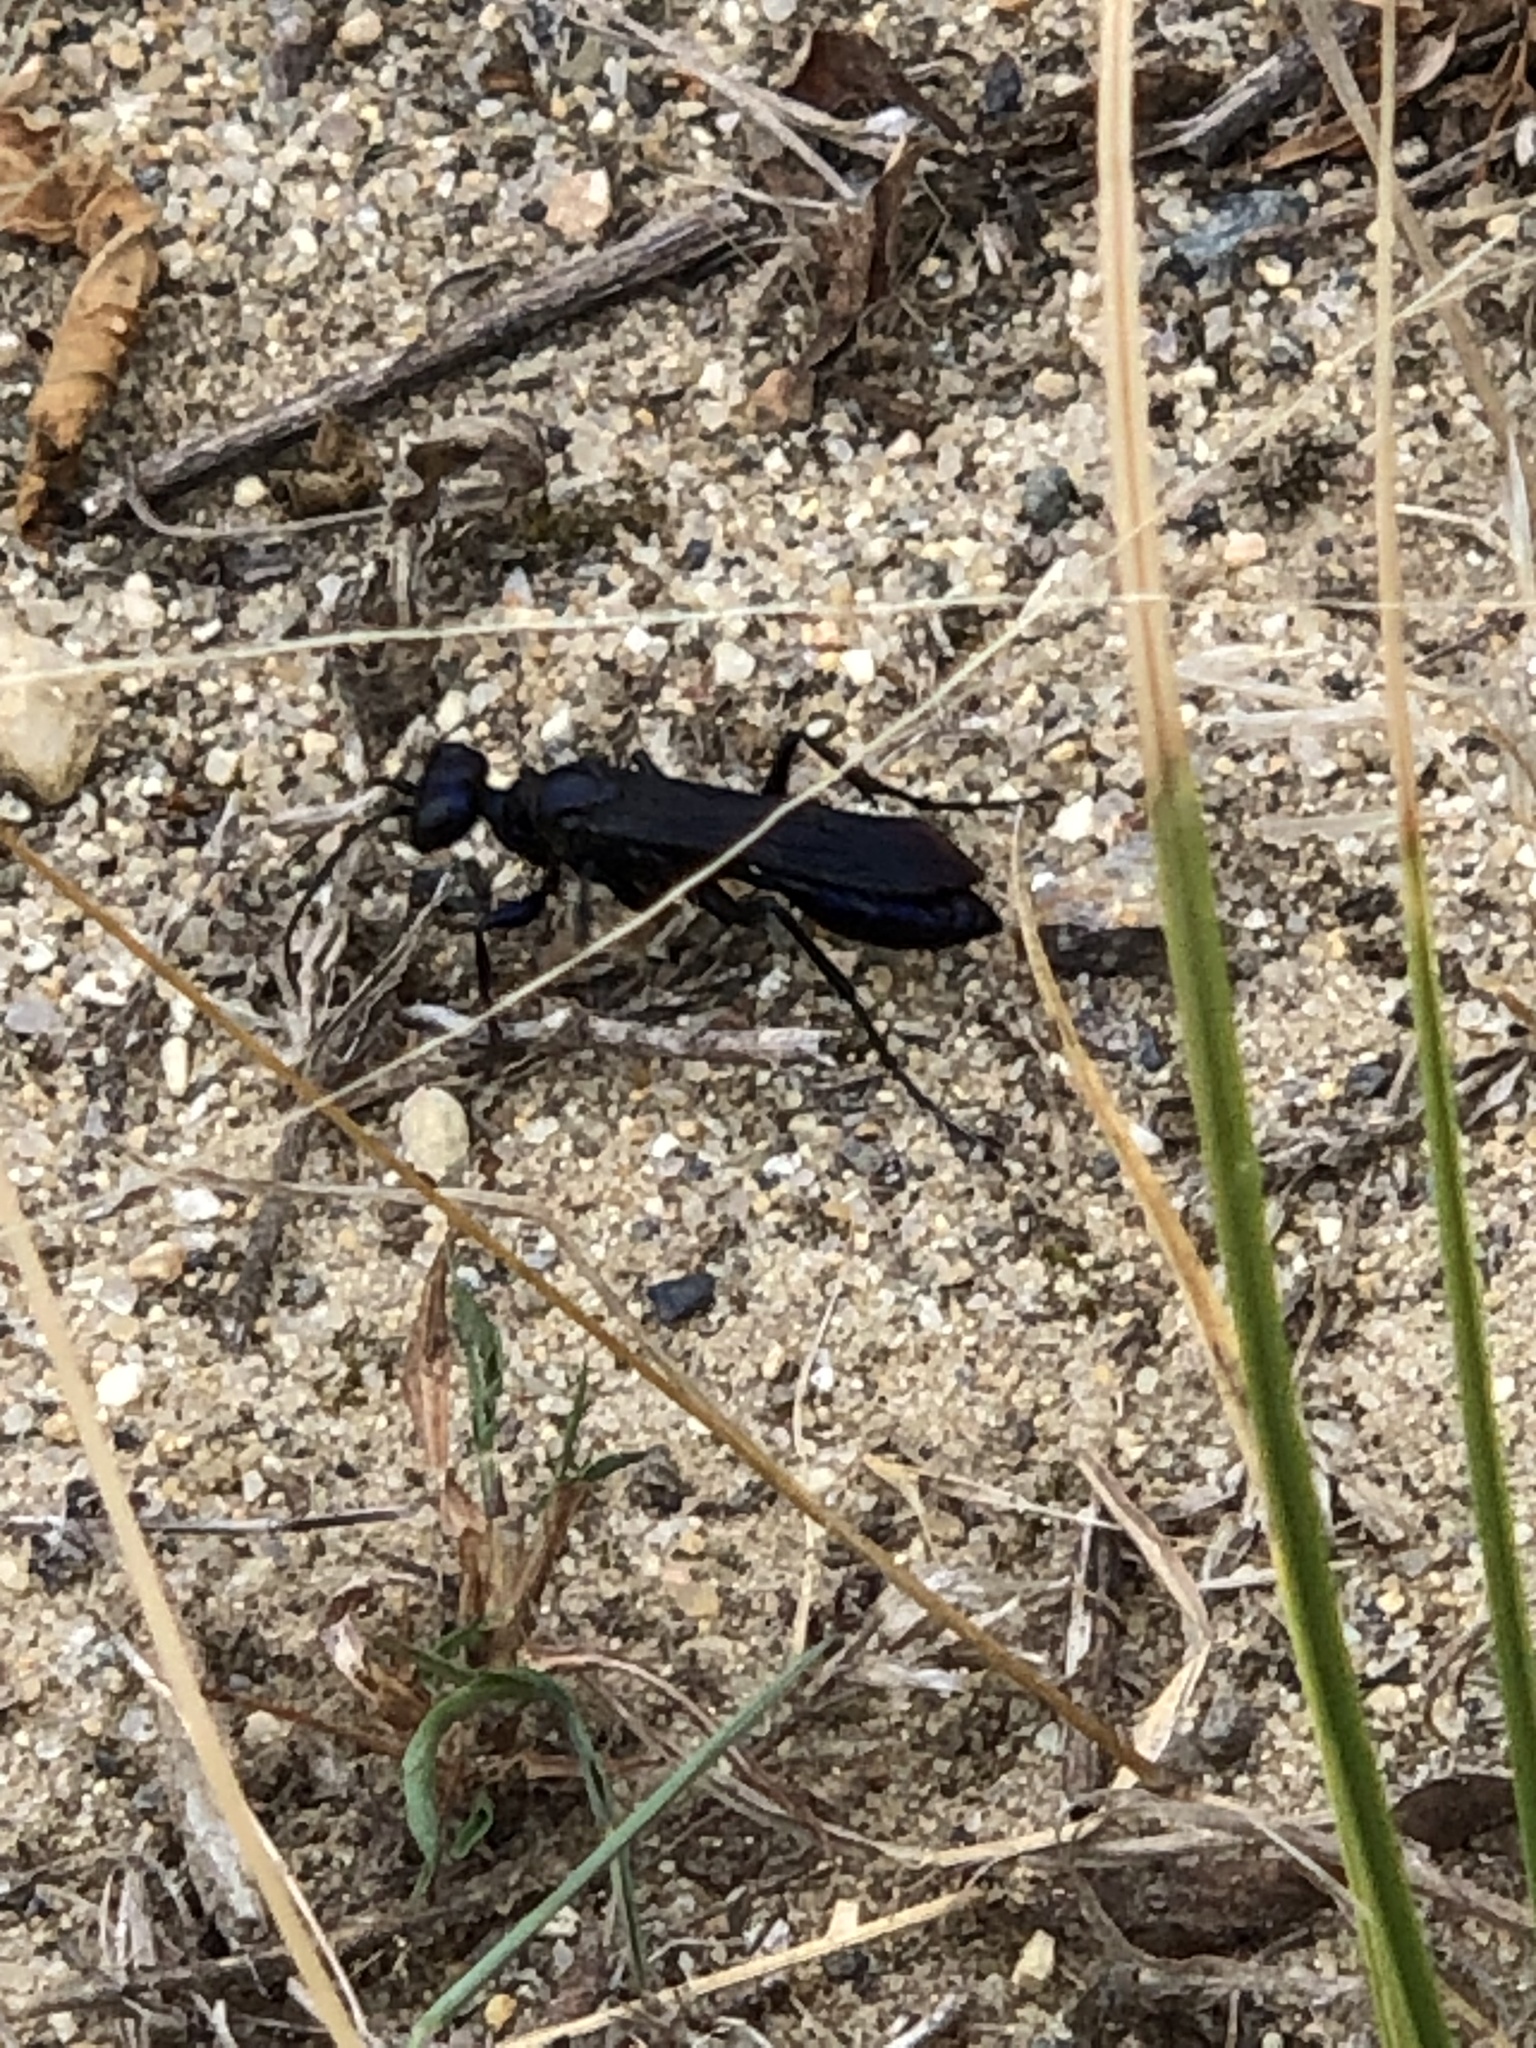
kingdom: Animalia
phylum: Arthropoda
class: Insecta
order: Hymenoptera
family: Sphecidae
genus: Chlorion
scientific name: Chlorion aerarium
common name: Steel-blue cricket hunter
